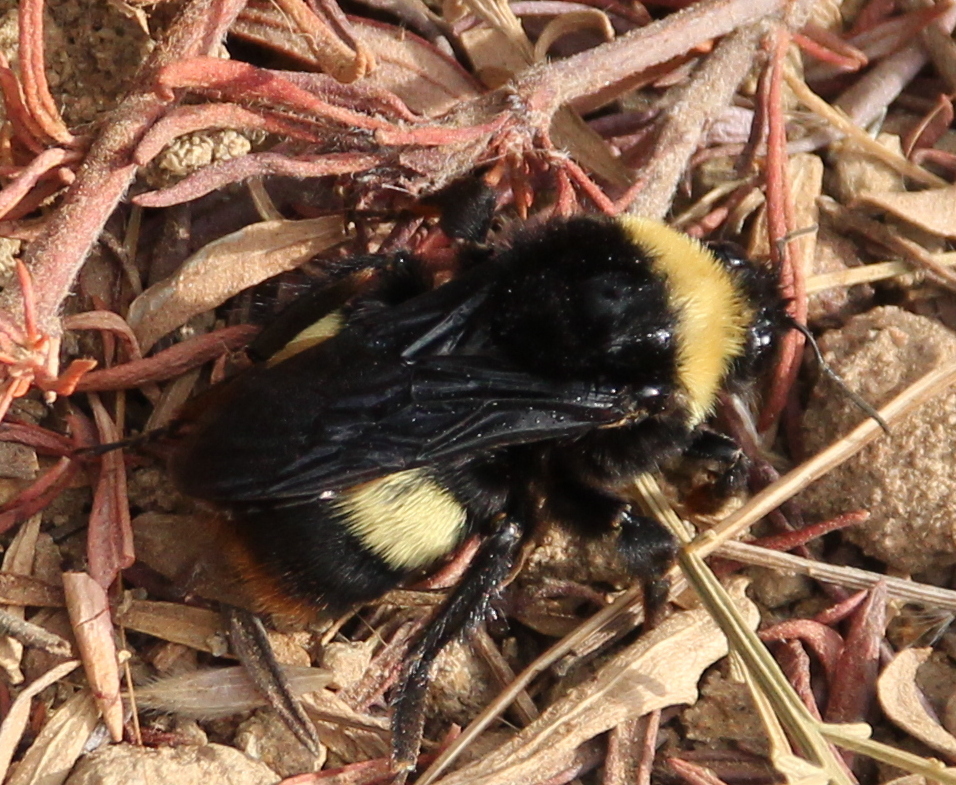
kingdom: Animalia
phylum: Arthropoda
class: Insecta
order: Hymenoptera
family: Apidae
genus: Bombus
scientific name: Bombus crotchii
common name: Crotch bumble bee
